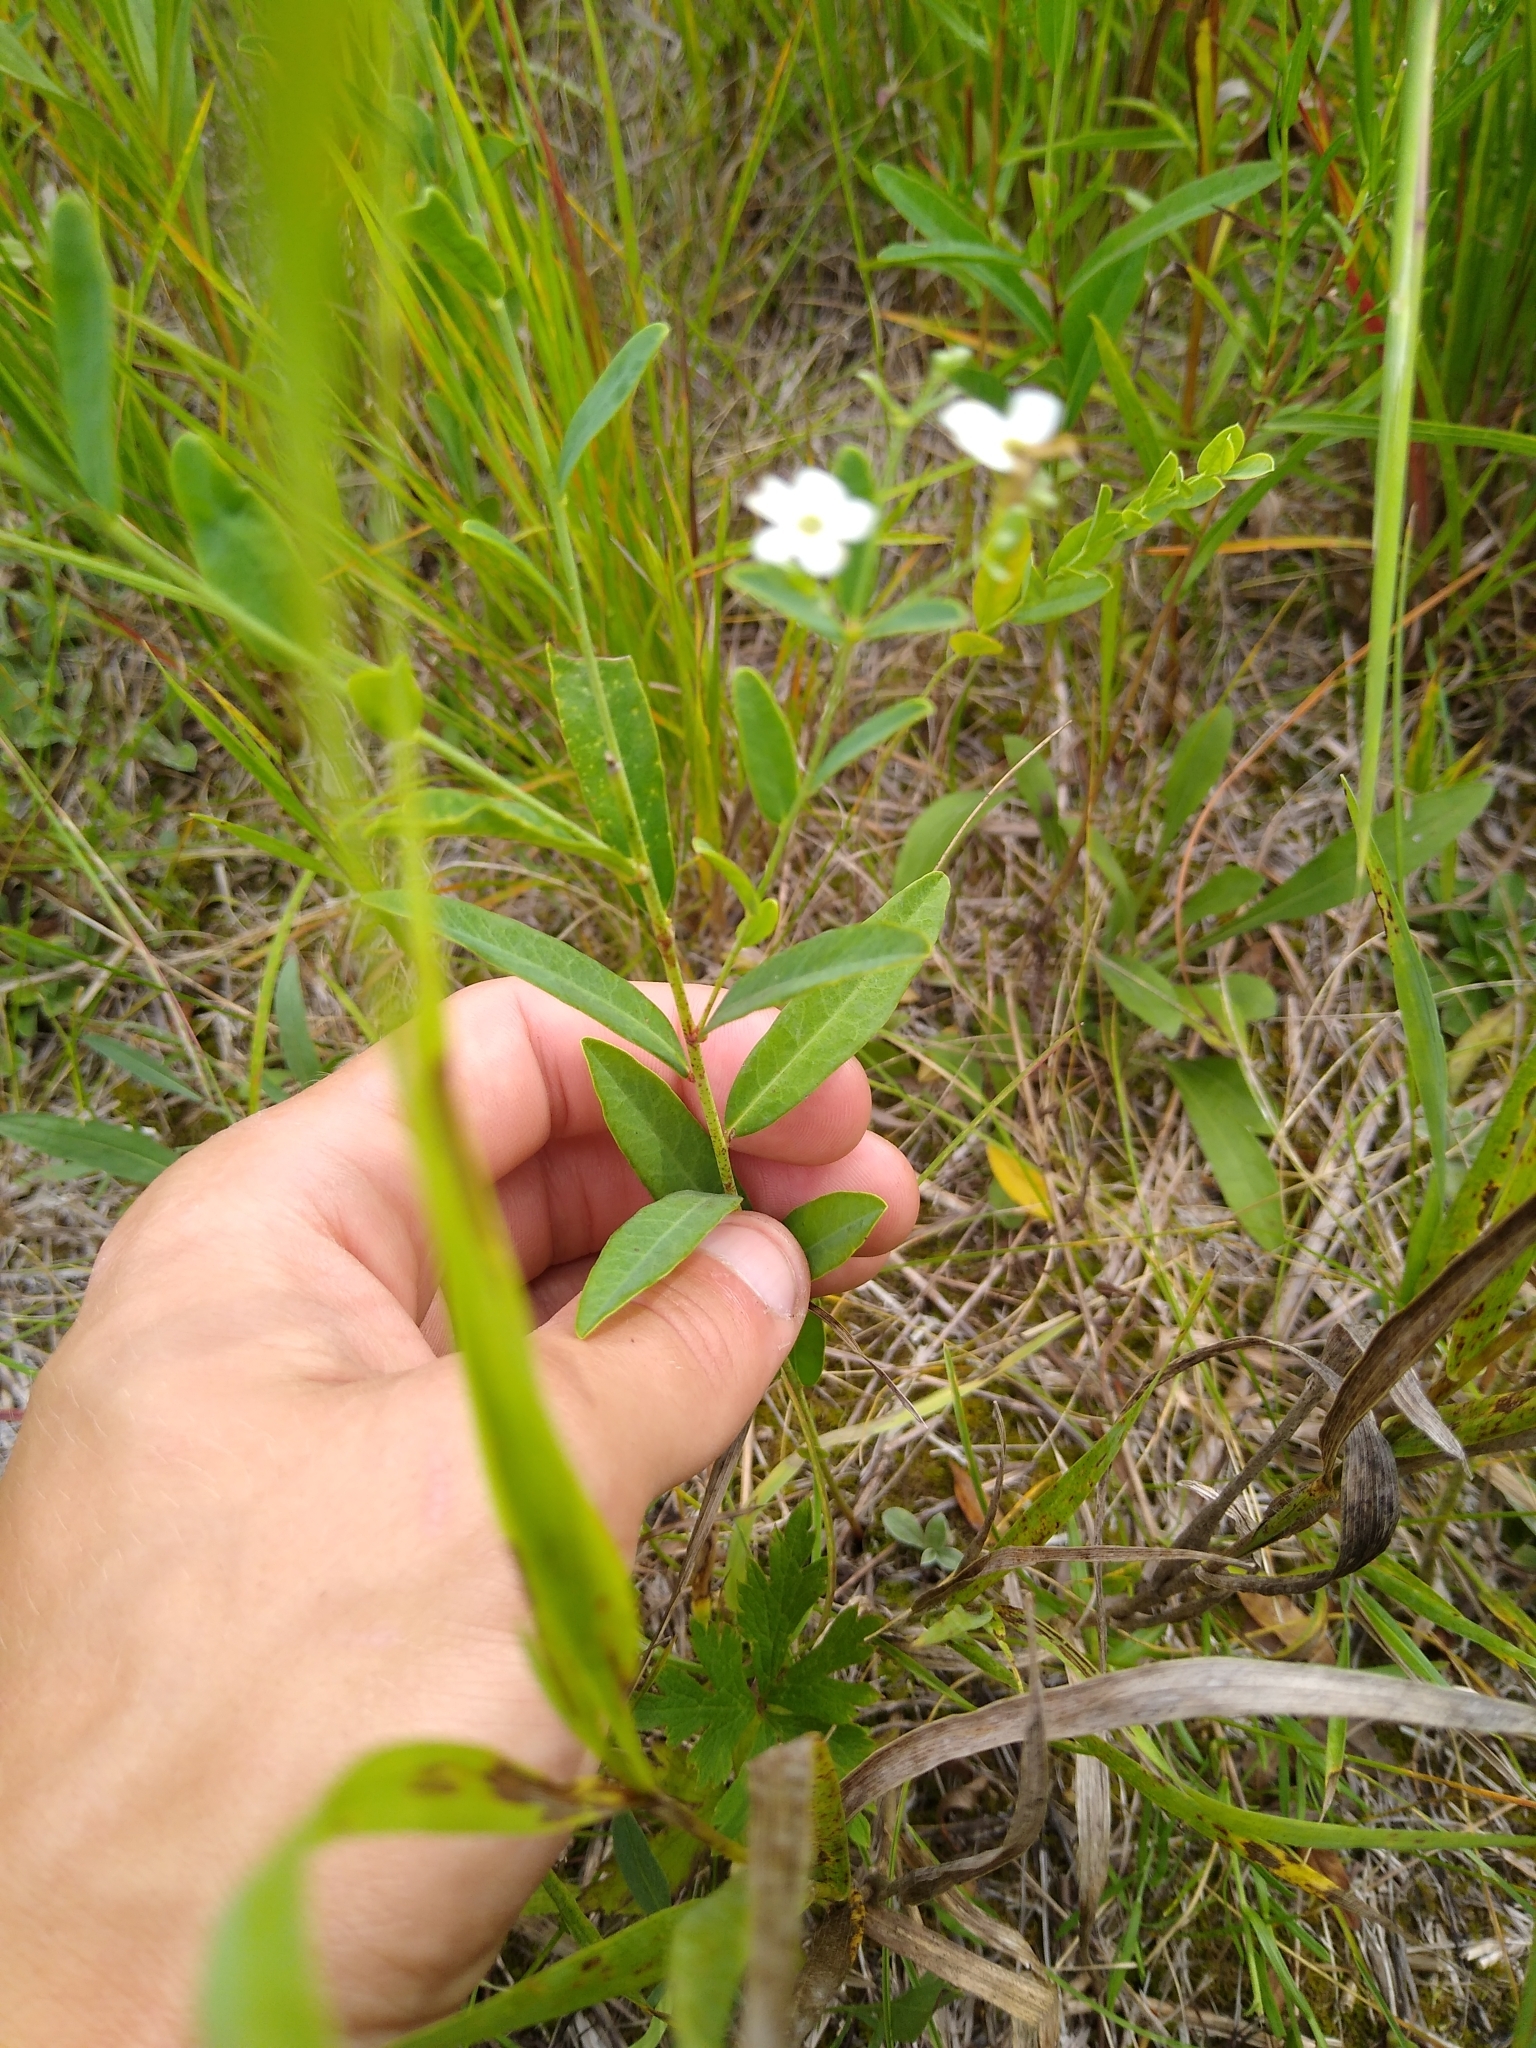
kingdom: Plantae
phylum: Tracheophyta
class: Magnoliopsida
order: Malpighiales
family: Euphorbiaceae
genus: Euphorbia
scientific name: Euphorbia corollata
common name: Flowering spurge
